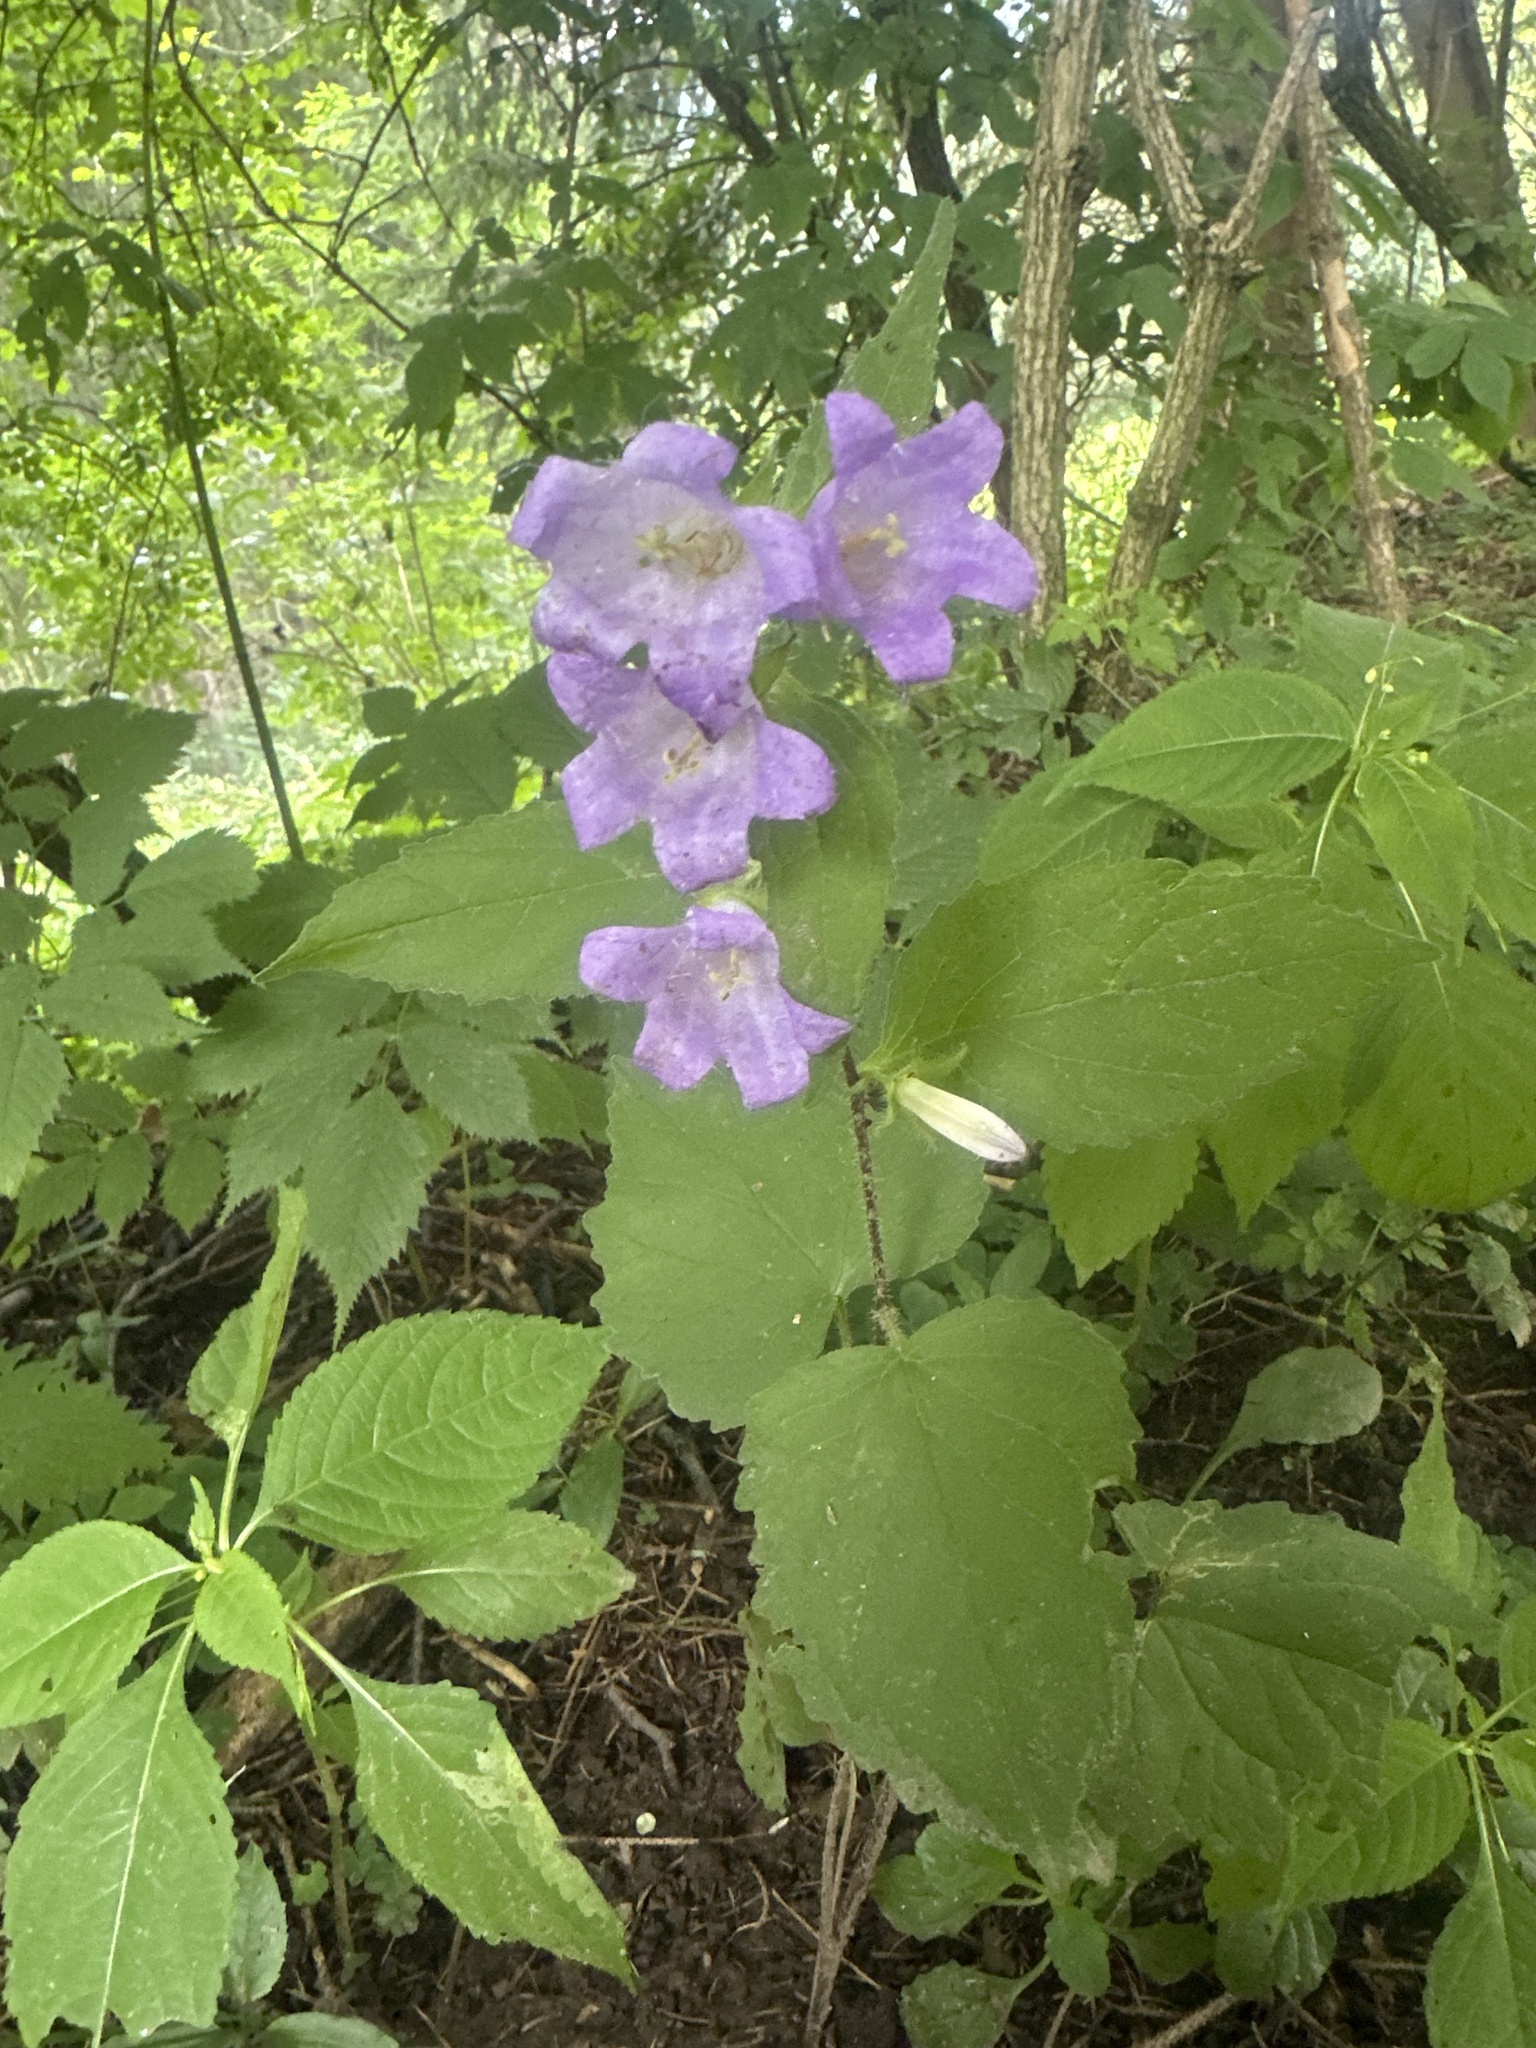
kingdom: Plantae
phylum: Tracheophyta
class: Magnoliopsida
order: Asterales
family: Campanulaceae
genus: Campanula
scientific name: Campanula trachelium
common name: Nettle-leaved bellflower
